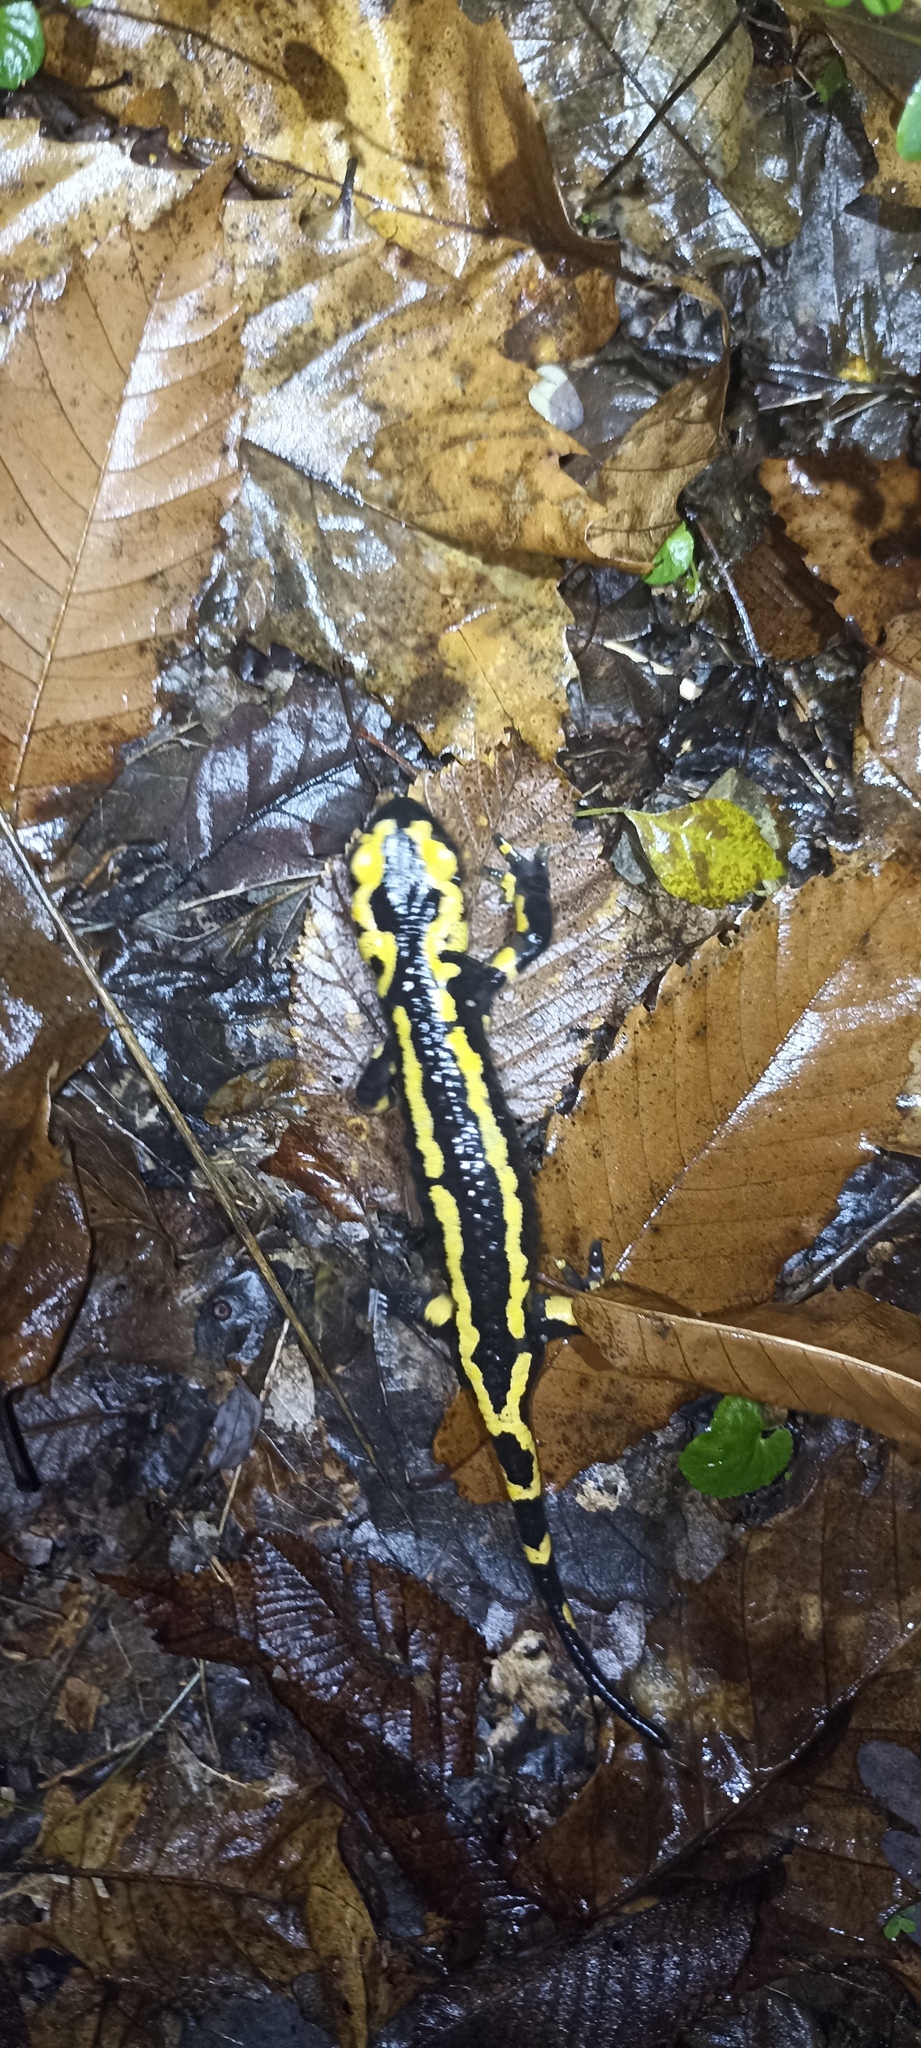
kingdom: Animalia
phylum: Chordata
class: Amphibia
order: Caudata
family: Salamandridae
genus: Salamandra
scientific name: Salamandra salamandra
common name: Fire salamander
